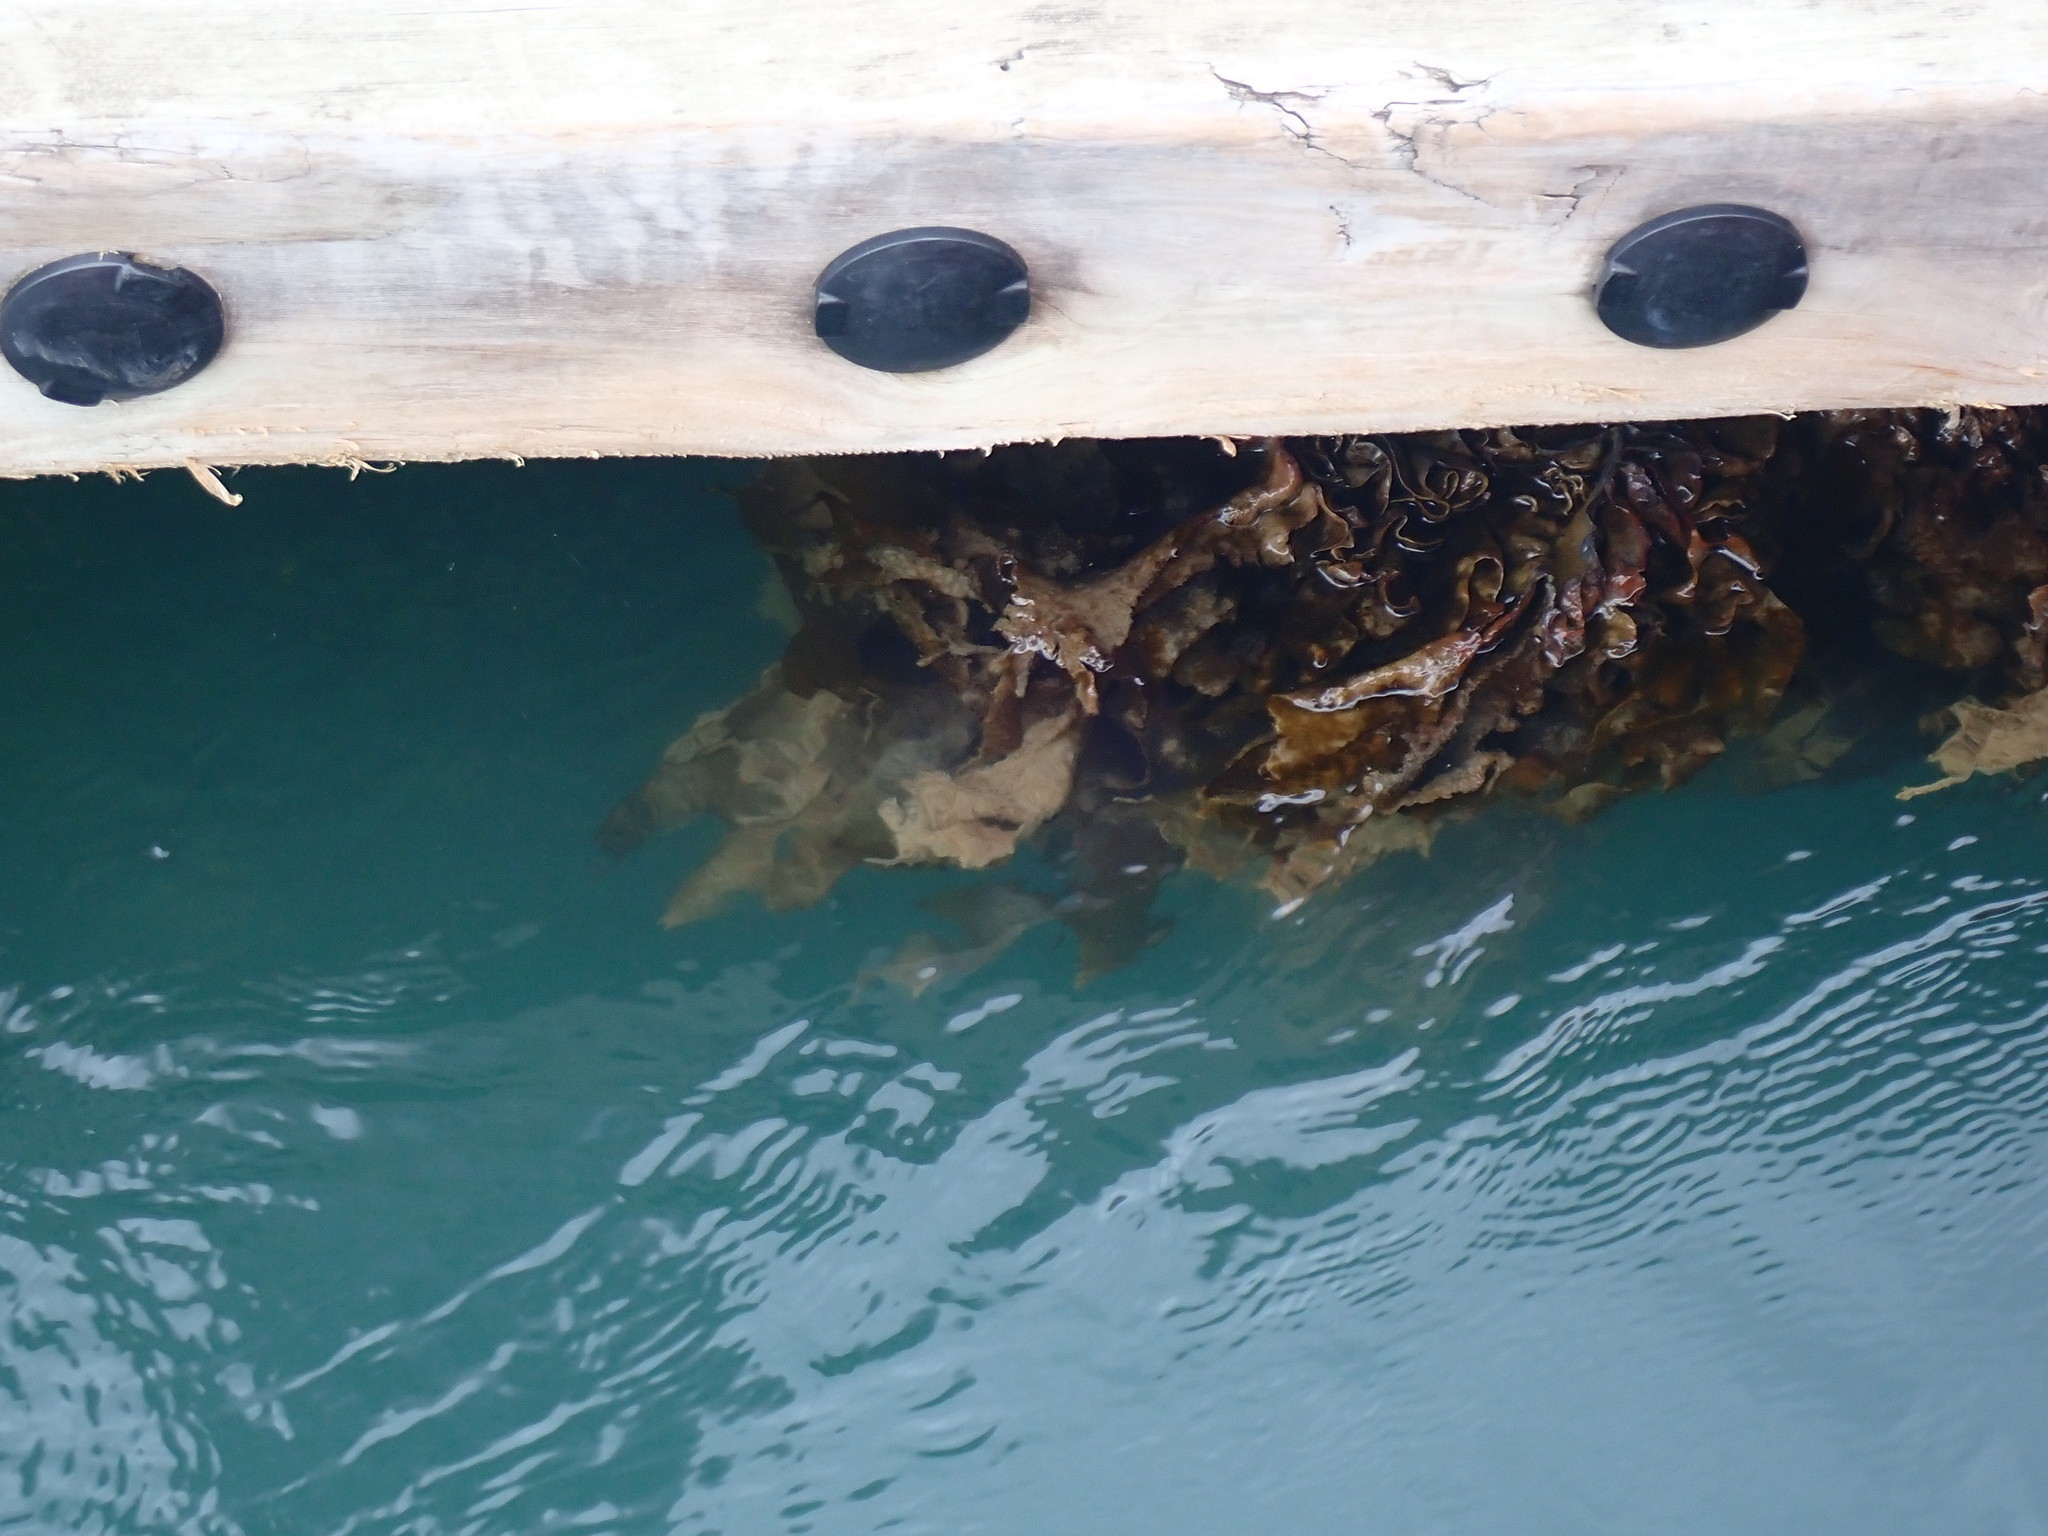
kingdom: Chromista
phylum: Ochrophyta
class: Phaeophyceae
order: Laminariales
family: Alariaceae
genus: Undaria
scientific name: Undaria pinnatifida
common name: Asian kelp
